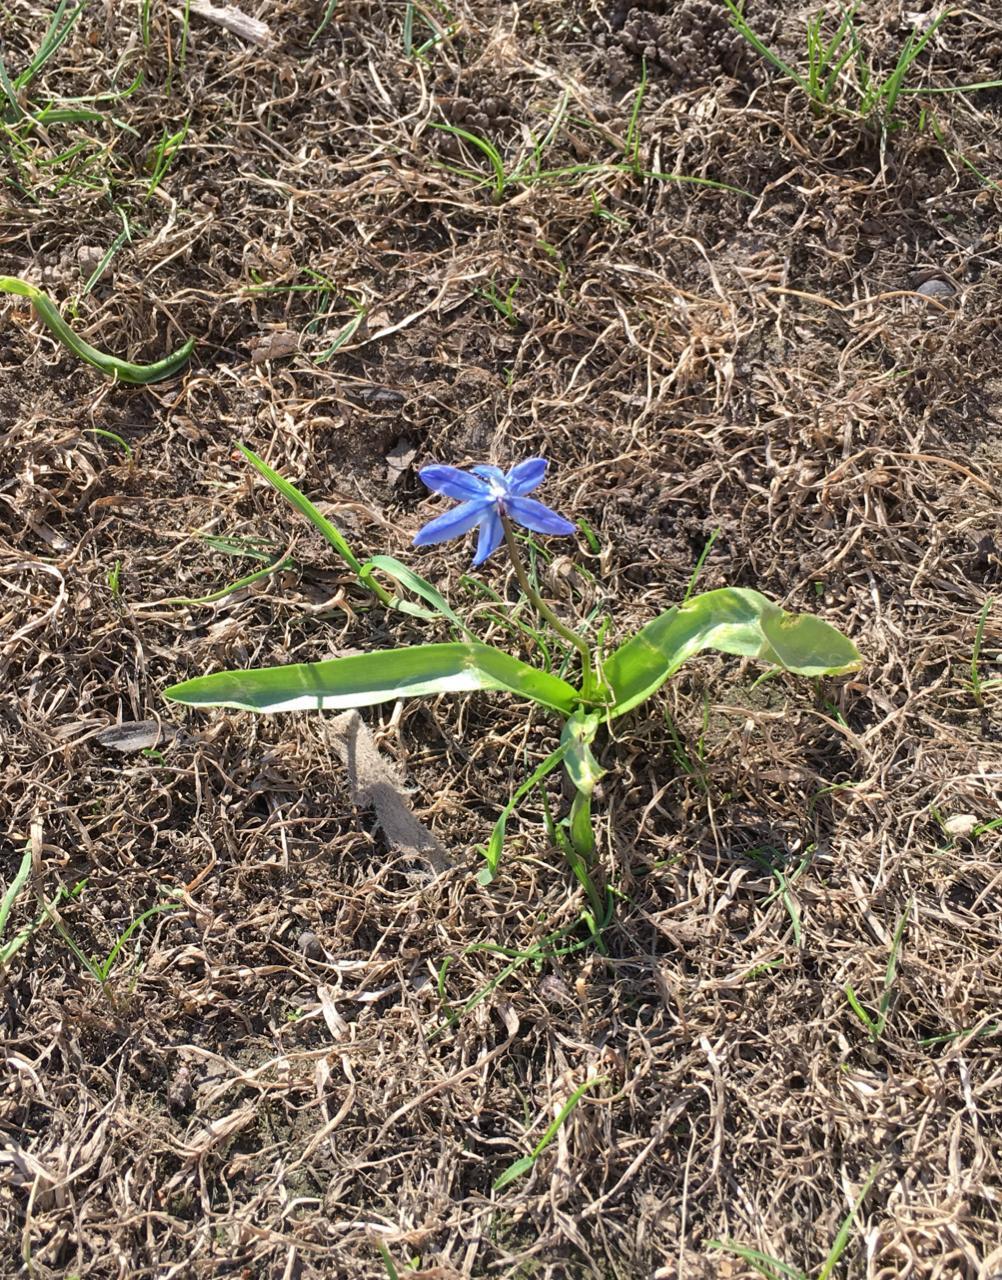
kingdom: Plantae
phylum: Tracheophyta
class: Liliopsida
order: Asparagales
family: Asparagaceae
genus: Scilla
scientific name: Scilla siberica
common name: Siberian squill
